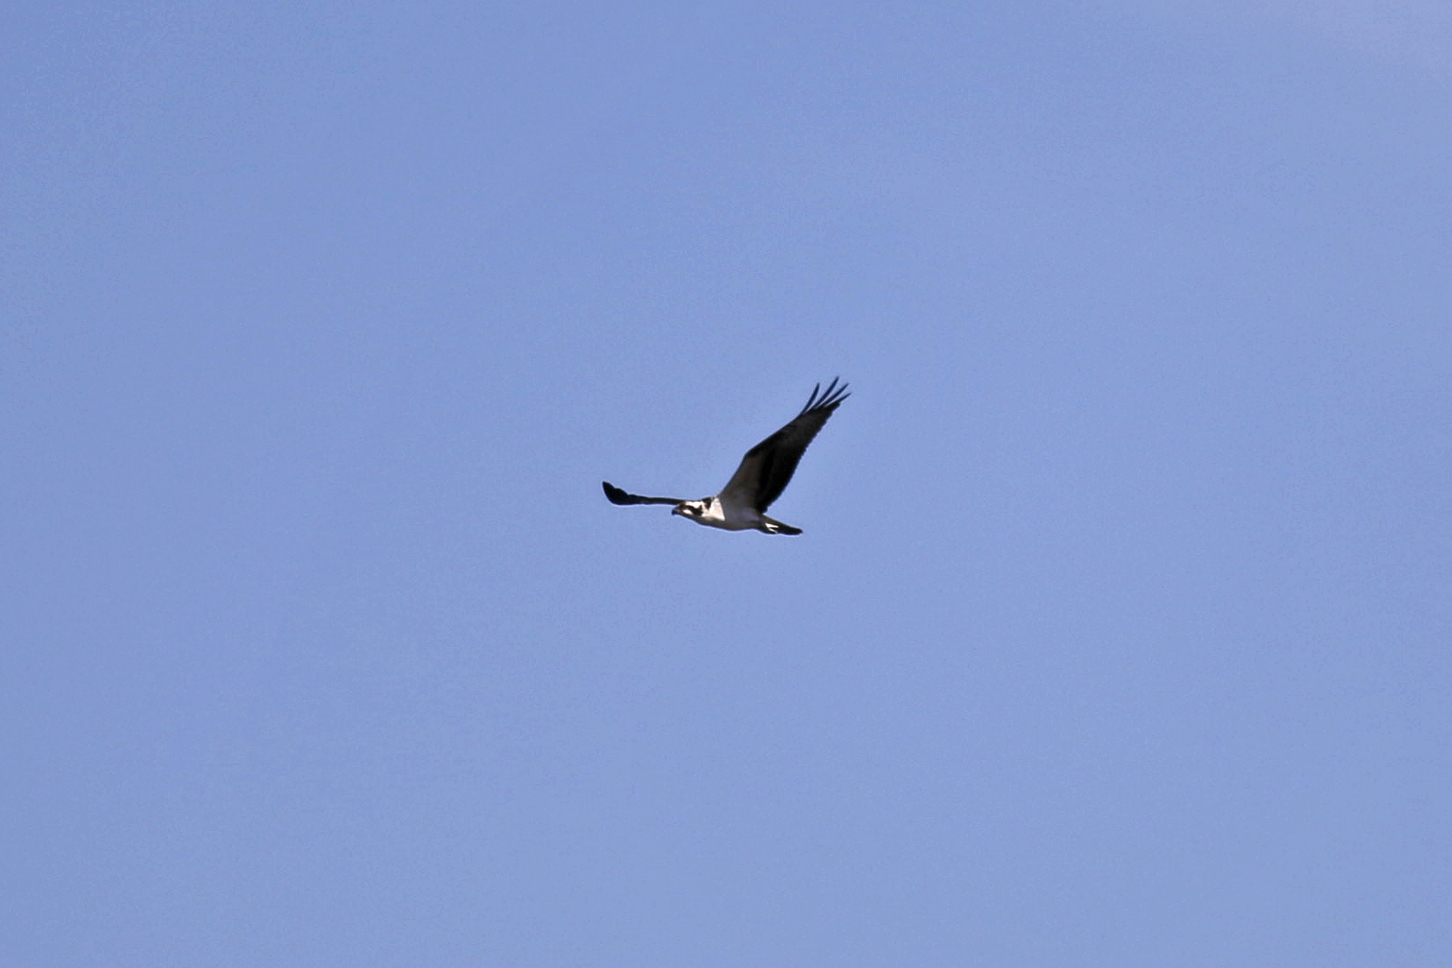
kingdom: Animalia
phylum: Chordata
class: Aves
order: Accipitriformes
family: Pandionidae
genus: Pandion
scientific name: Pandion haliaetus
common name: Osprey
